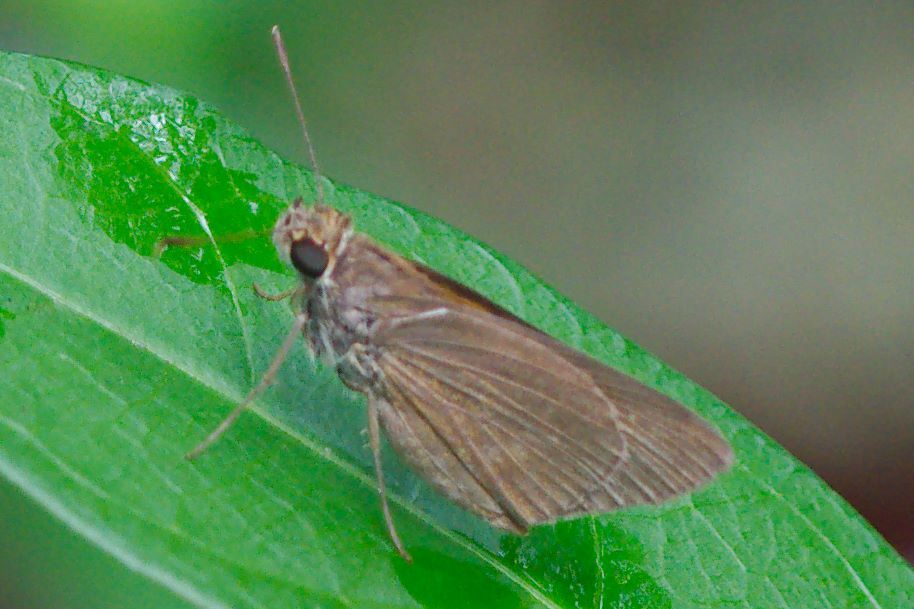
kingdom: Animalia
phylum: Arthropoda
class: Insecta
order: Lepidoptera
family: Hesperiidae
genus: Cymaenes
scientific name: Cymaenes tripunctus
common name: Dingy dotted skipper
